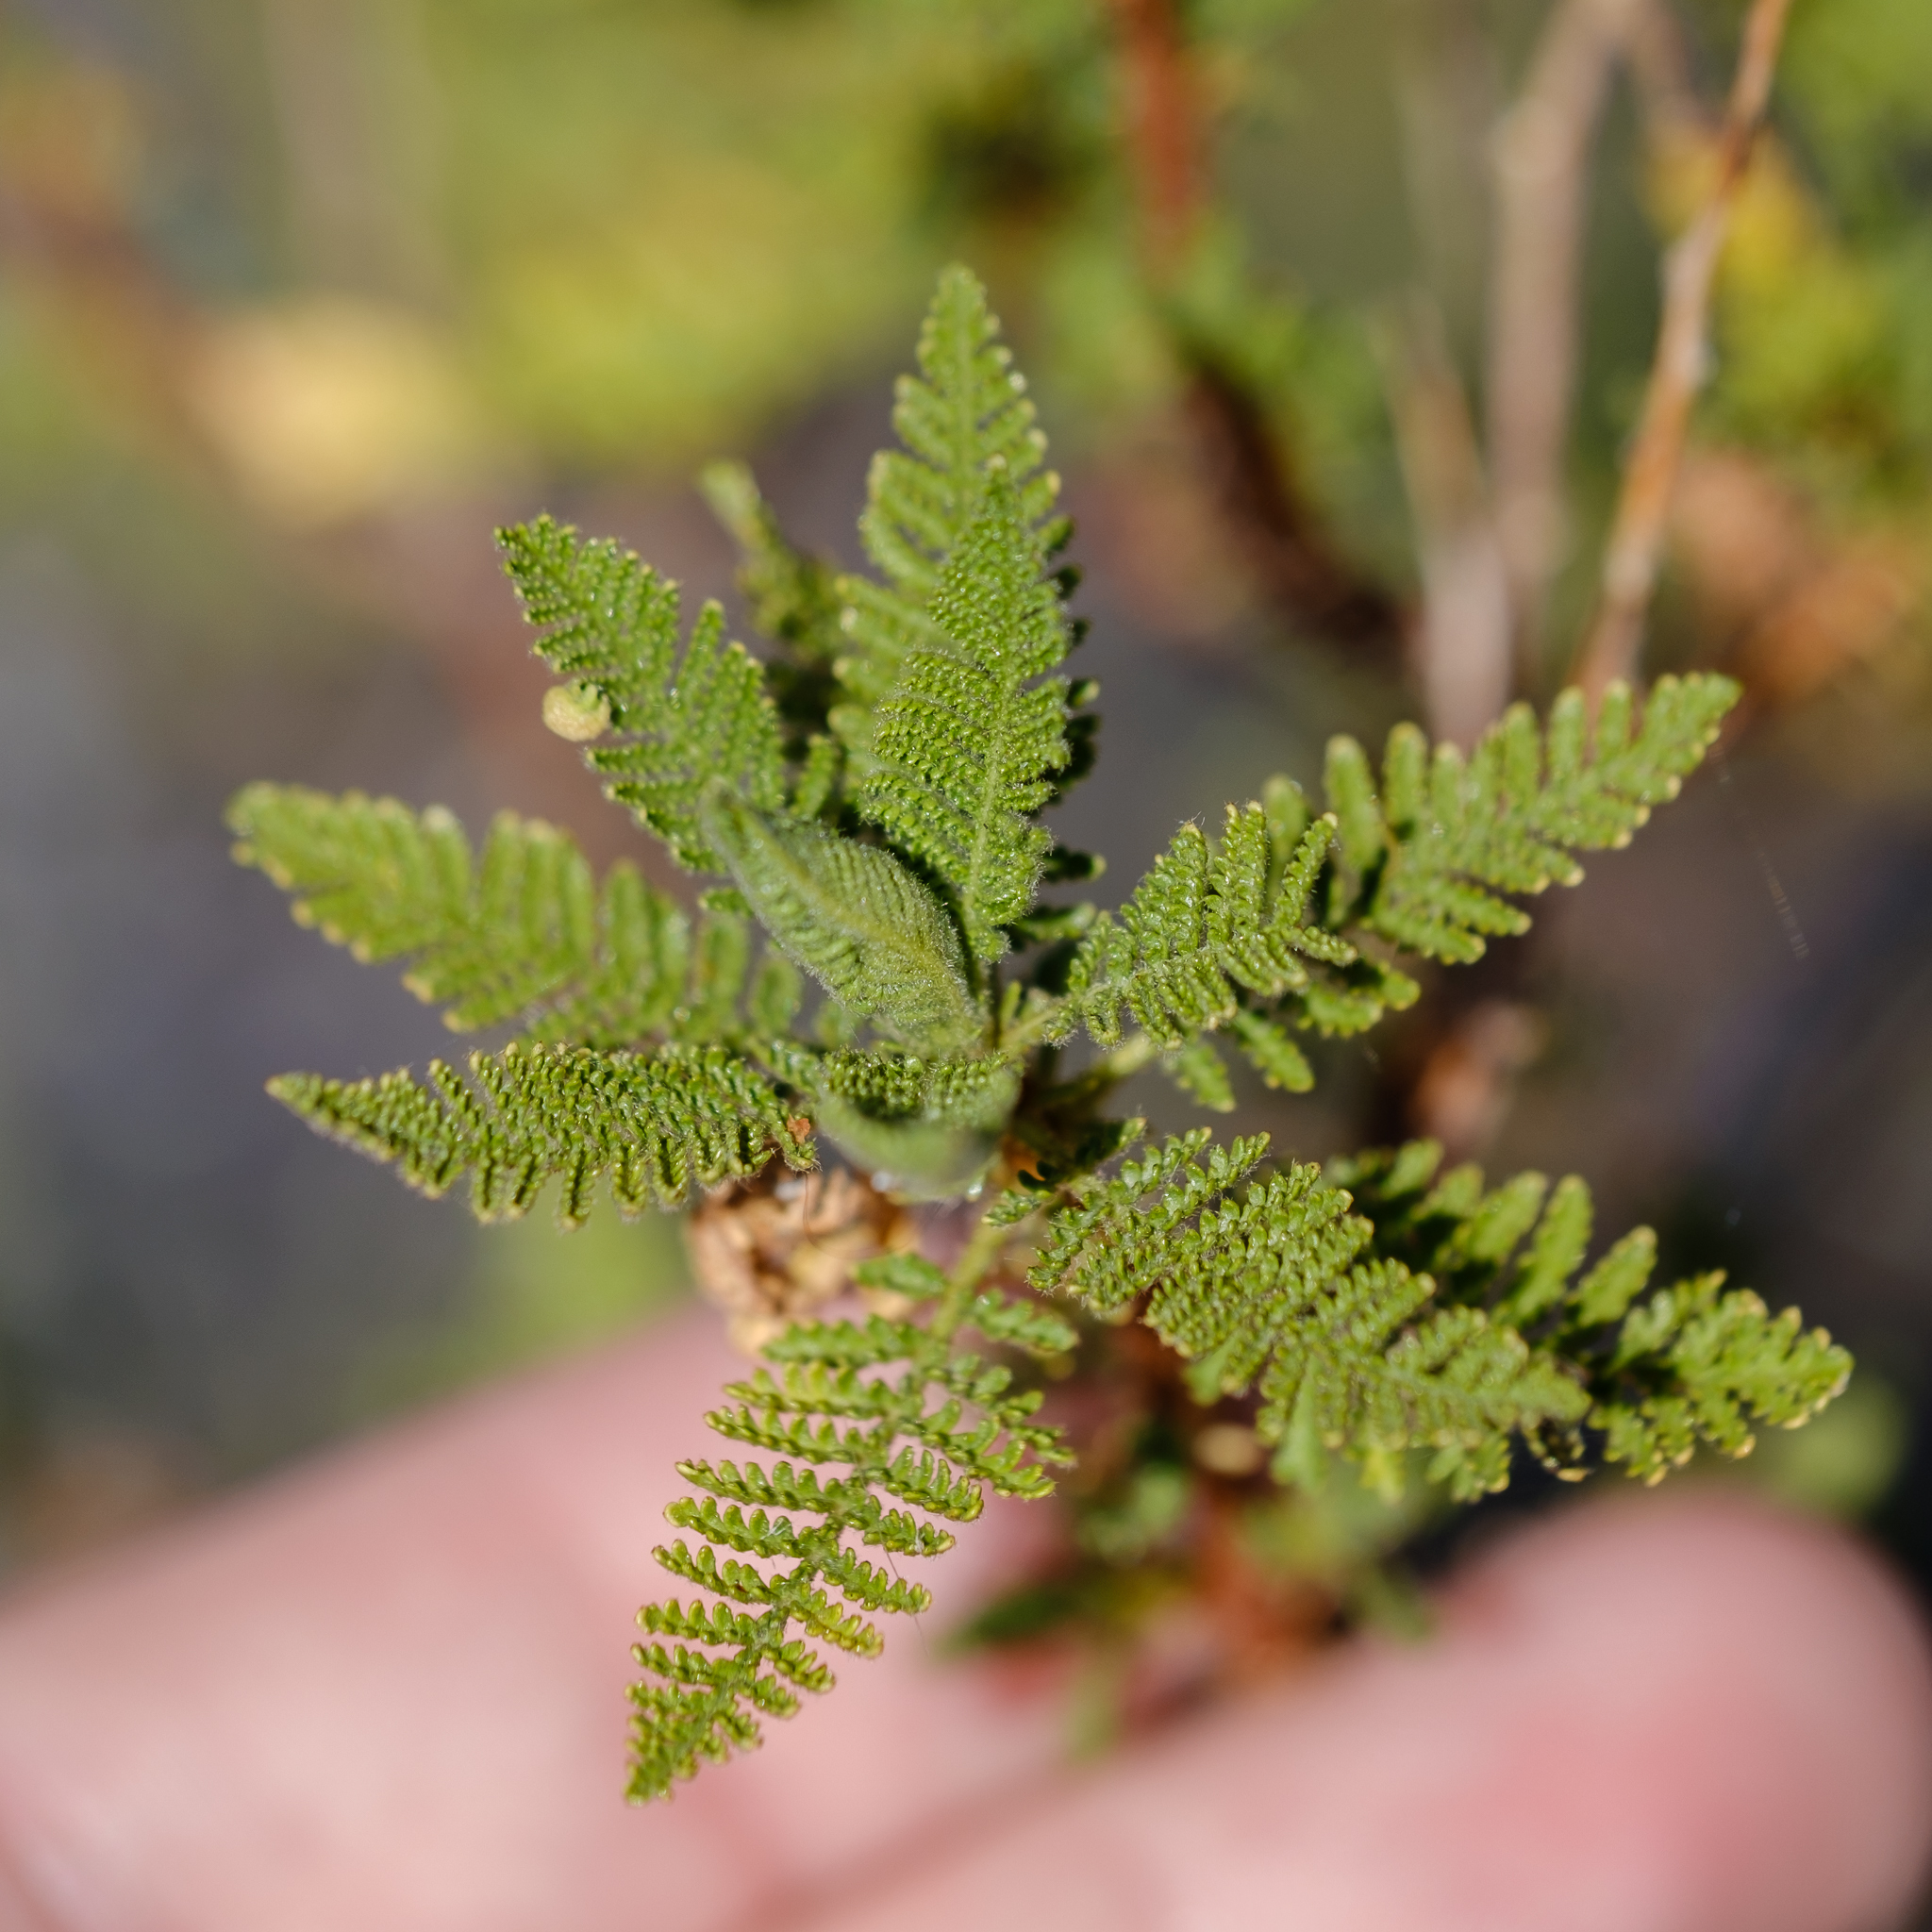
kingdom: Plantae
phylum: Tracheophyta
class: Magnoliopsida
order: Rosales
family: Rosaceae
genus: Chamaebatiaria
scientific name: Chamaebatiaria millefolium
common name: Fernbush
